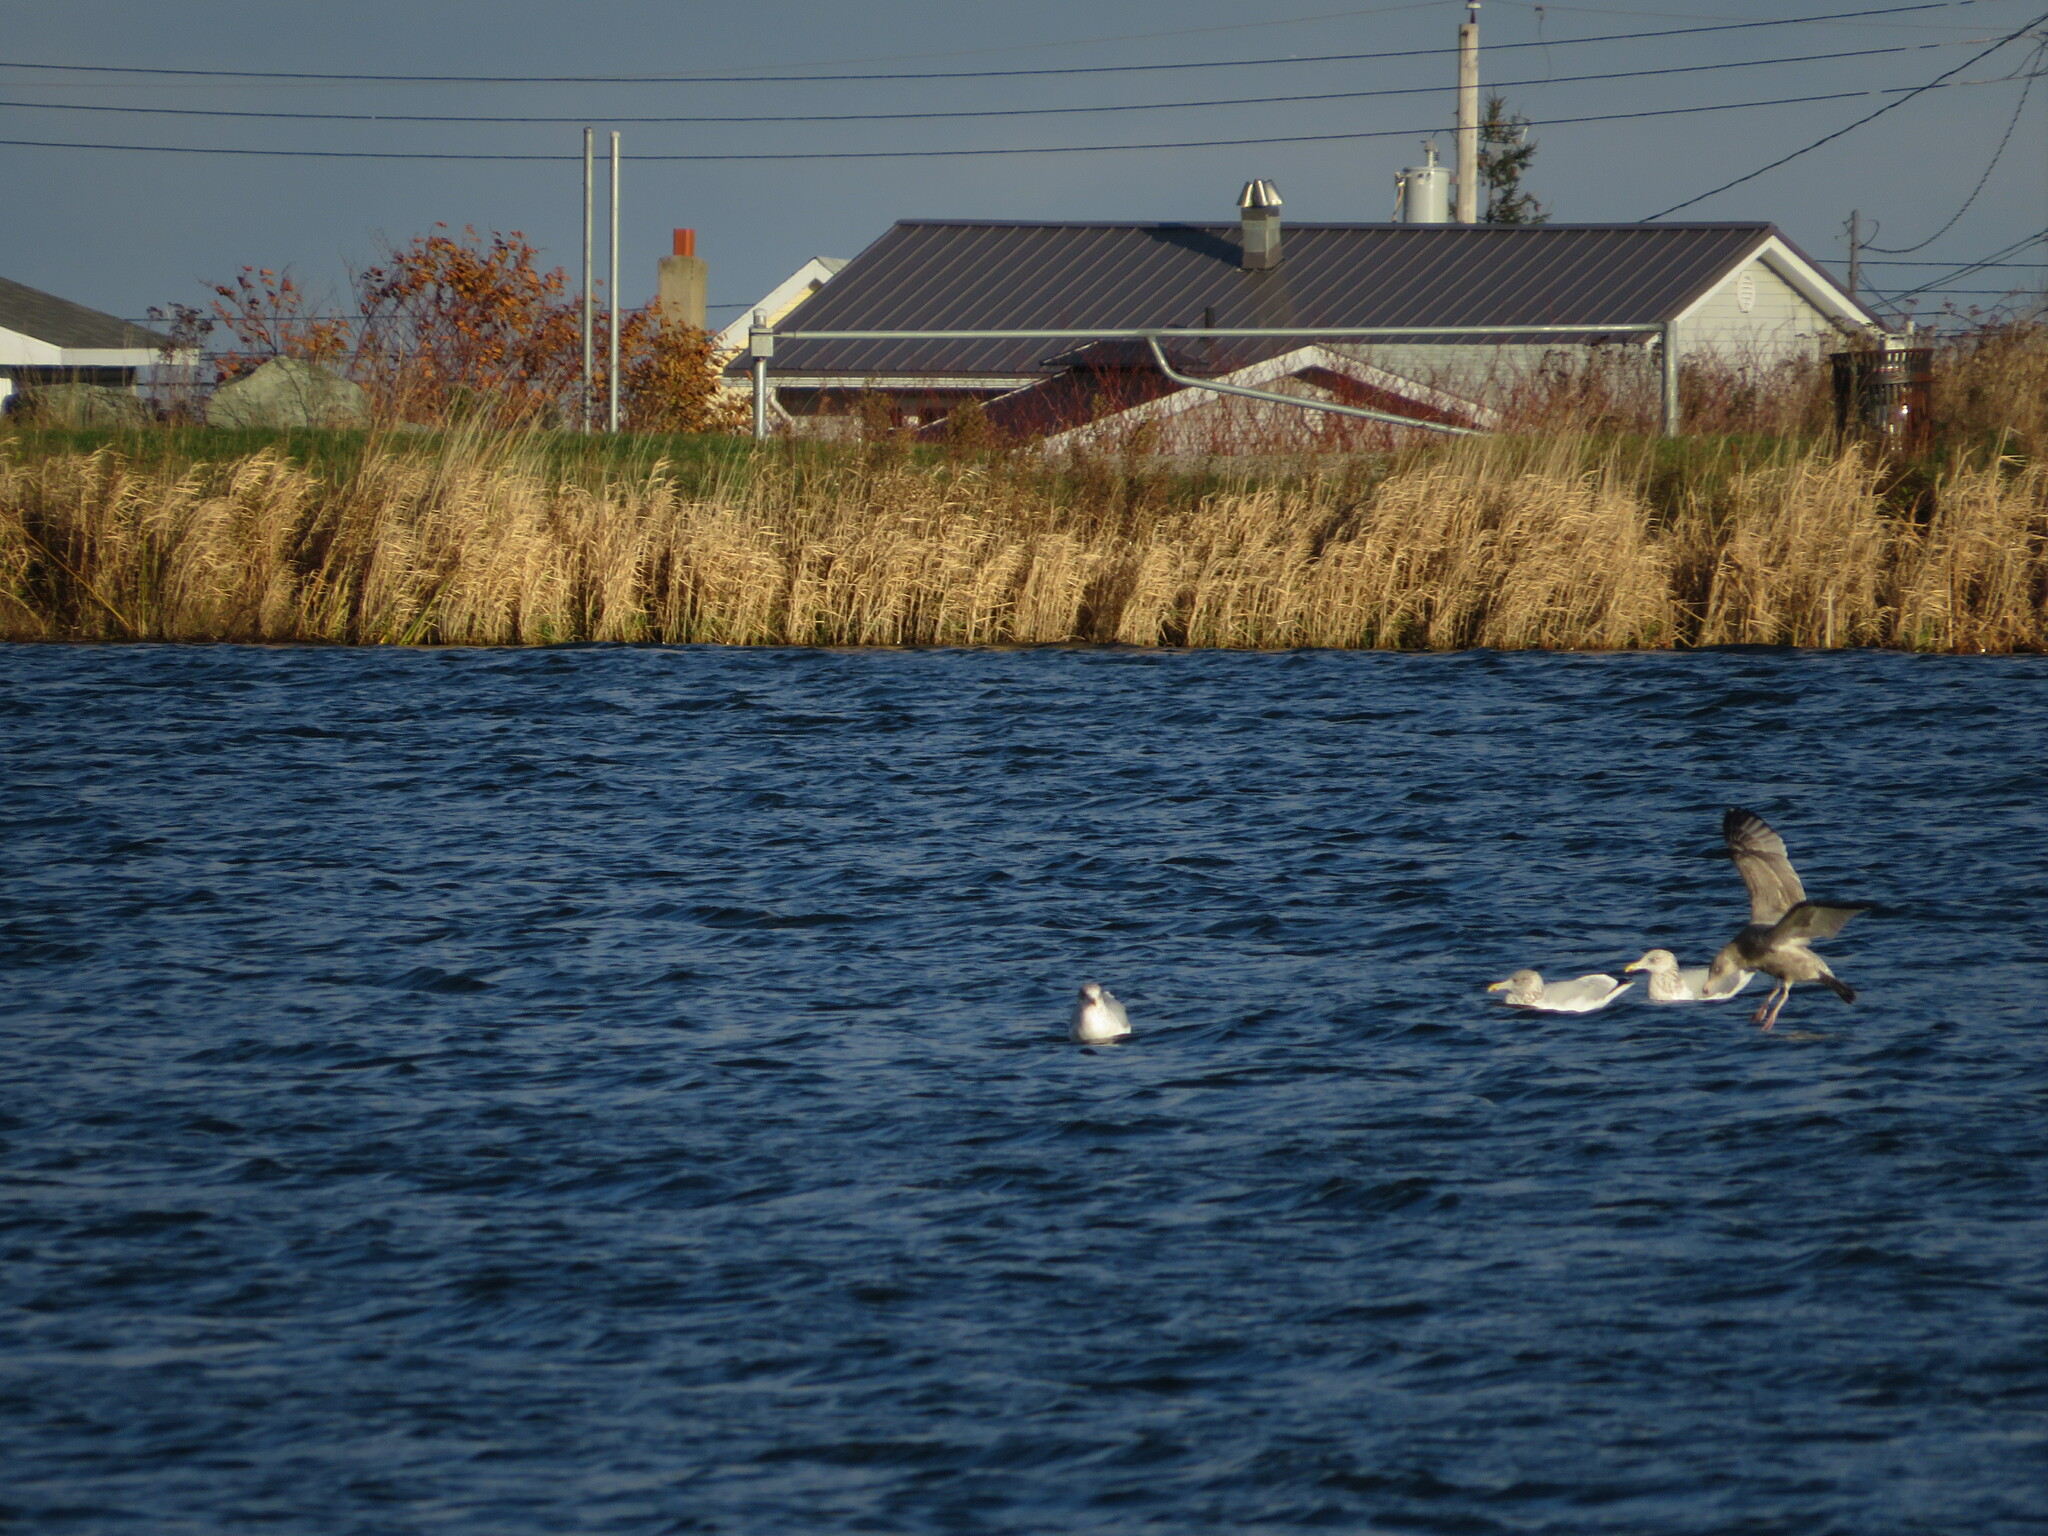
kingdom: Animalia
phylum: Chordata
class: Aves
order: Charadriiformes
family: Laridae
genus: Larus
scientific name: Larus argentatus
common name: Herring gull
